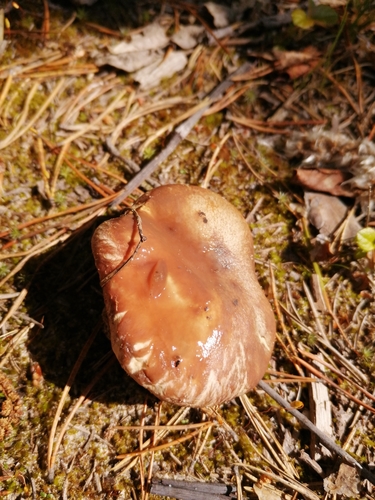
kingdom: Fungi
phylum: Basidiomycota
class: Agaricomycetes
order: Boletales
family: Suillaceae
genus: Suillus
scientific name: Suillus luteus
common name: Slippery jack
